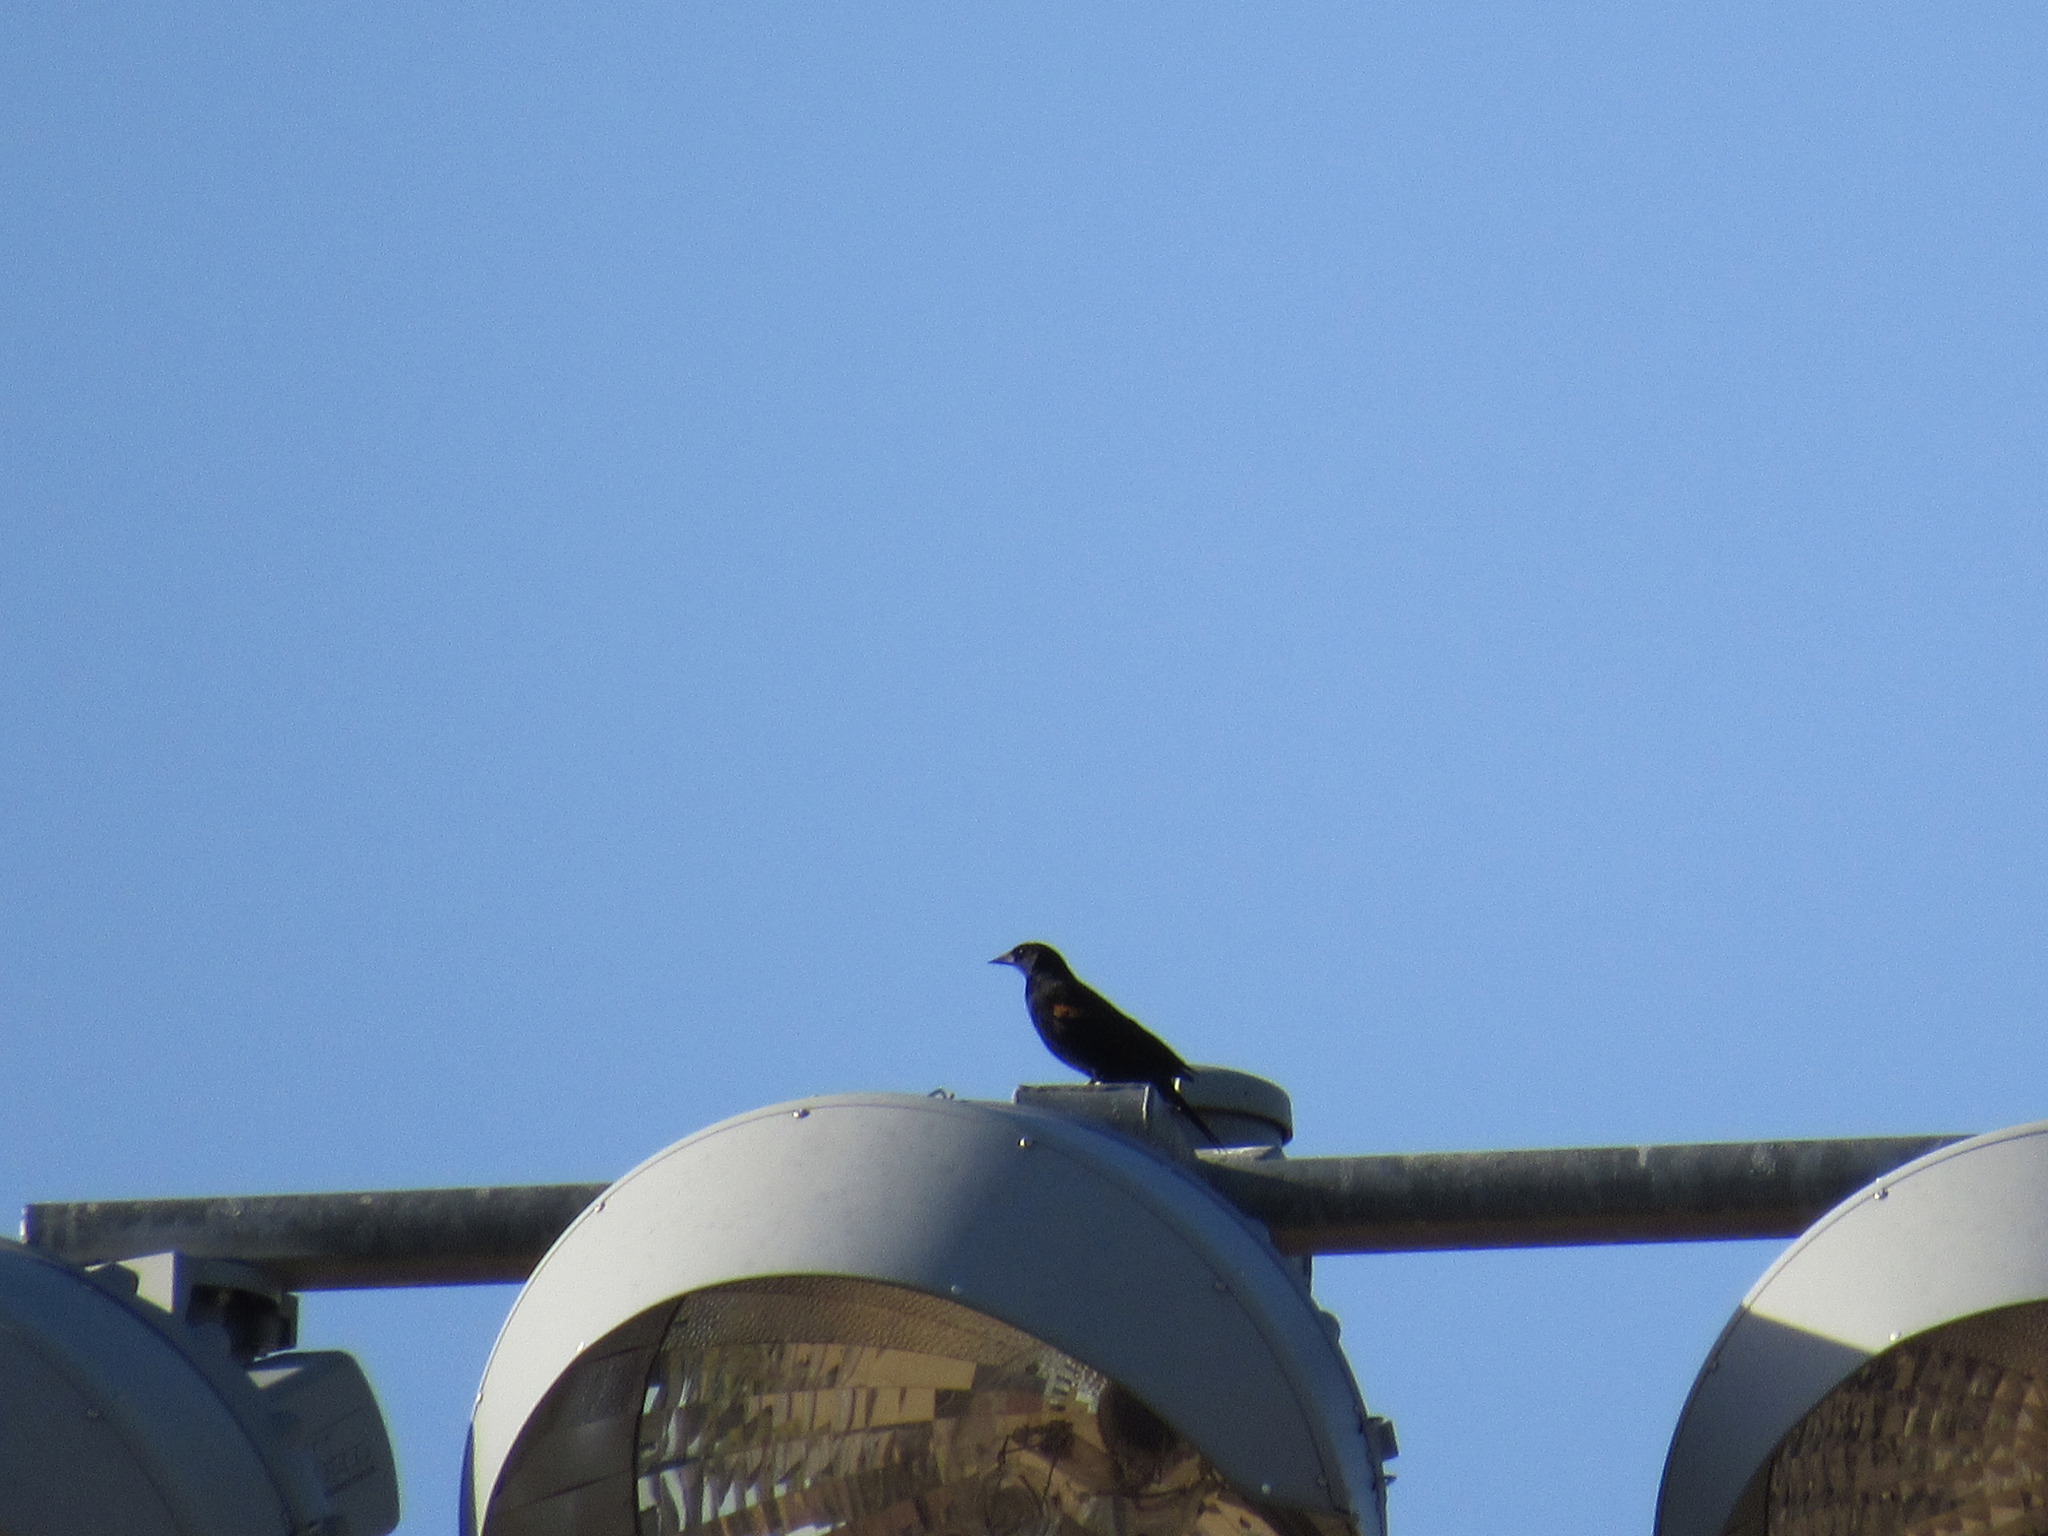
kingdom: Animalia
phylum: Chordata
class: Aves
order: Passeriformes
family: Icteridae
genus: Agelaius
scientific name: Agelaius phoeniceus
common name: Red-winged blackbird
